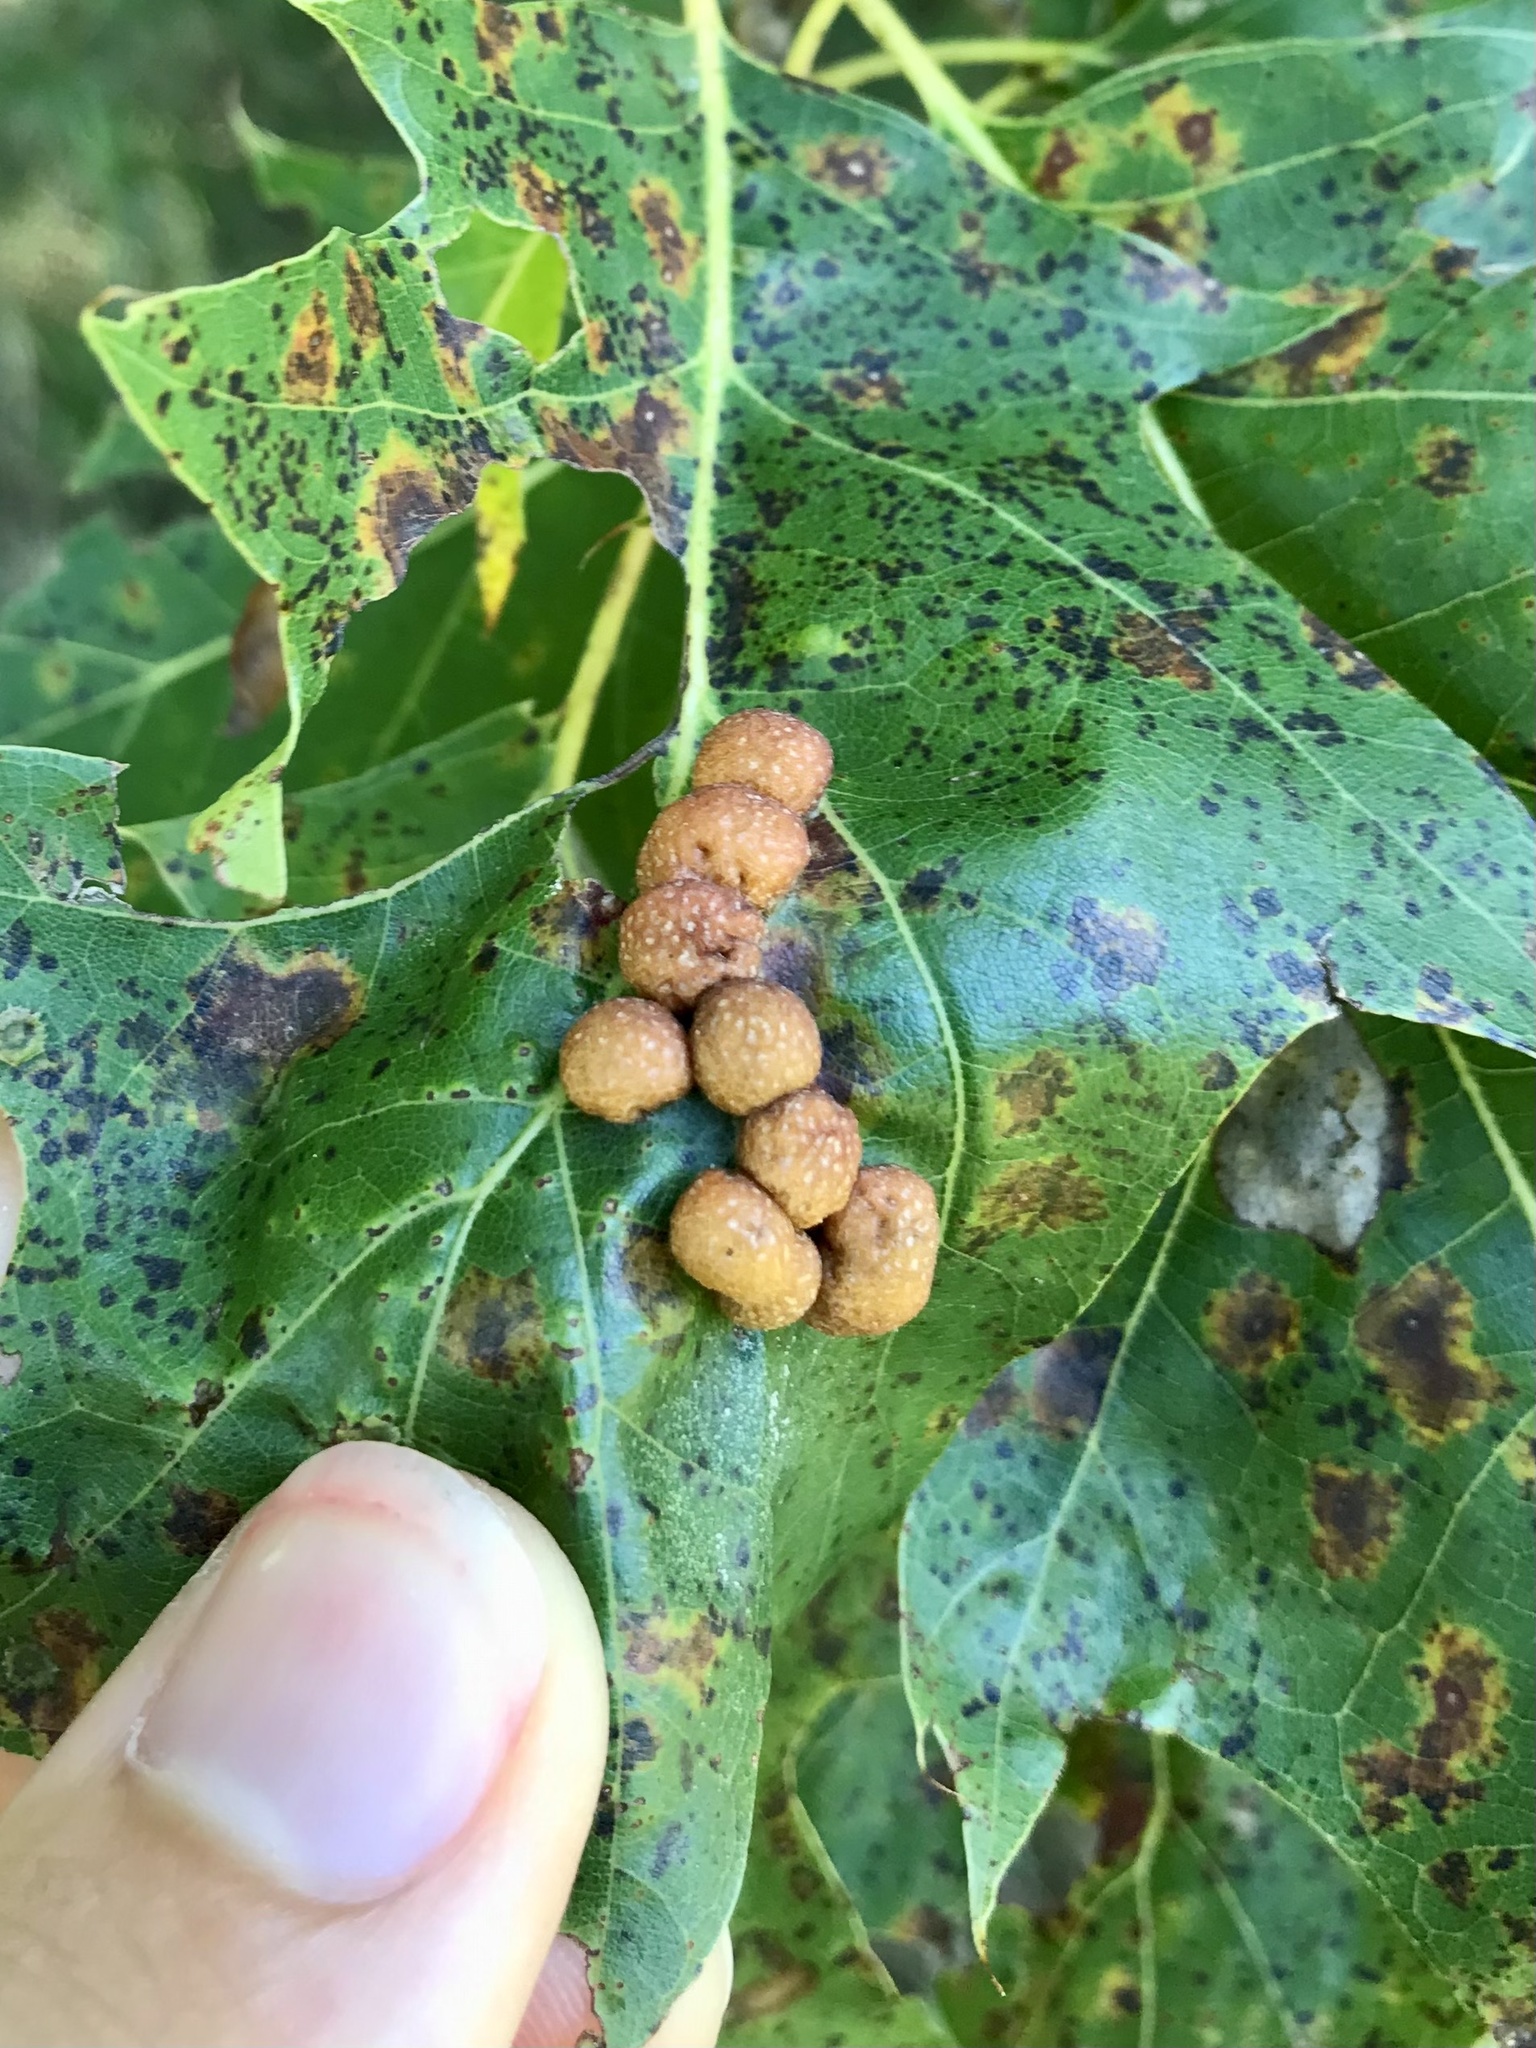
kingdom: Animalia
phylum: Arthropoda
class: Insecta
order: Diptera
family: Cecidomyiidae
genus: Polystepha
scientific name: Polystepha pilulae
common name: Oak leaf gall midge
